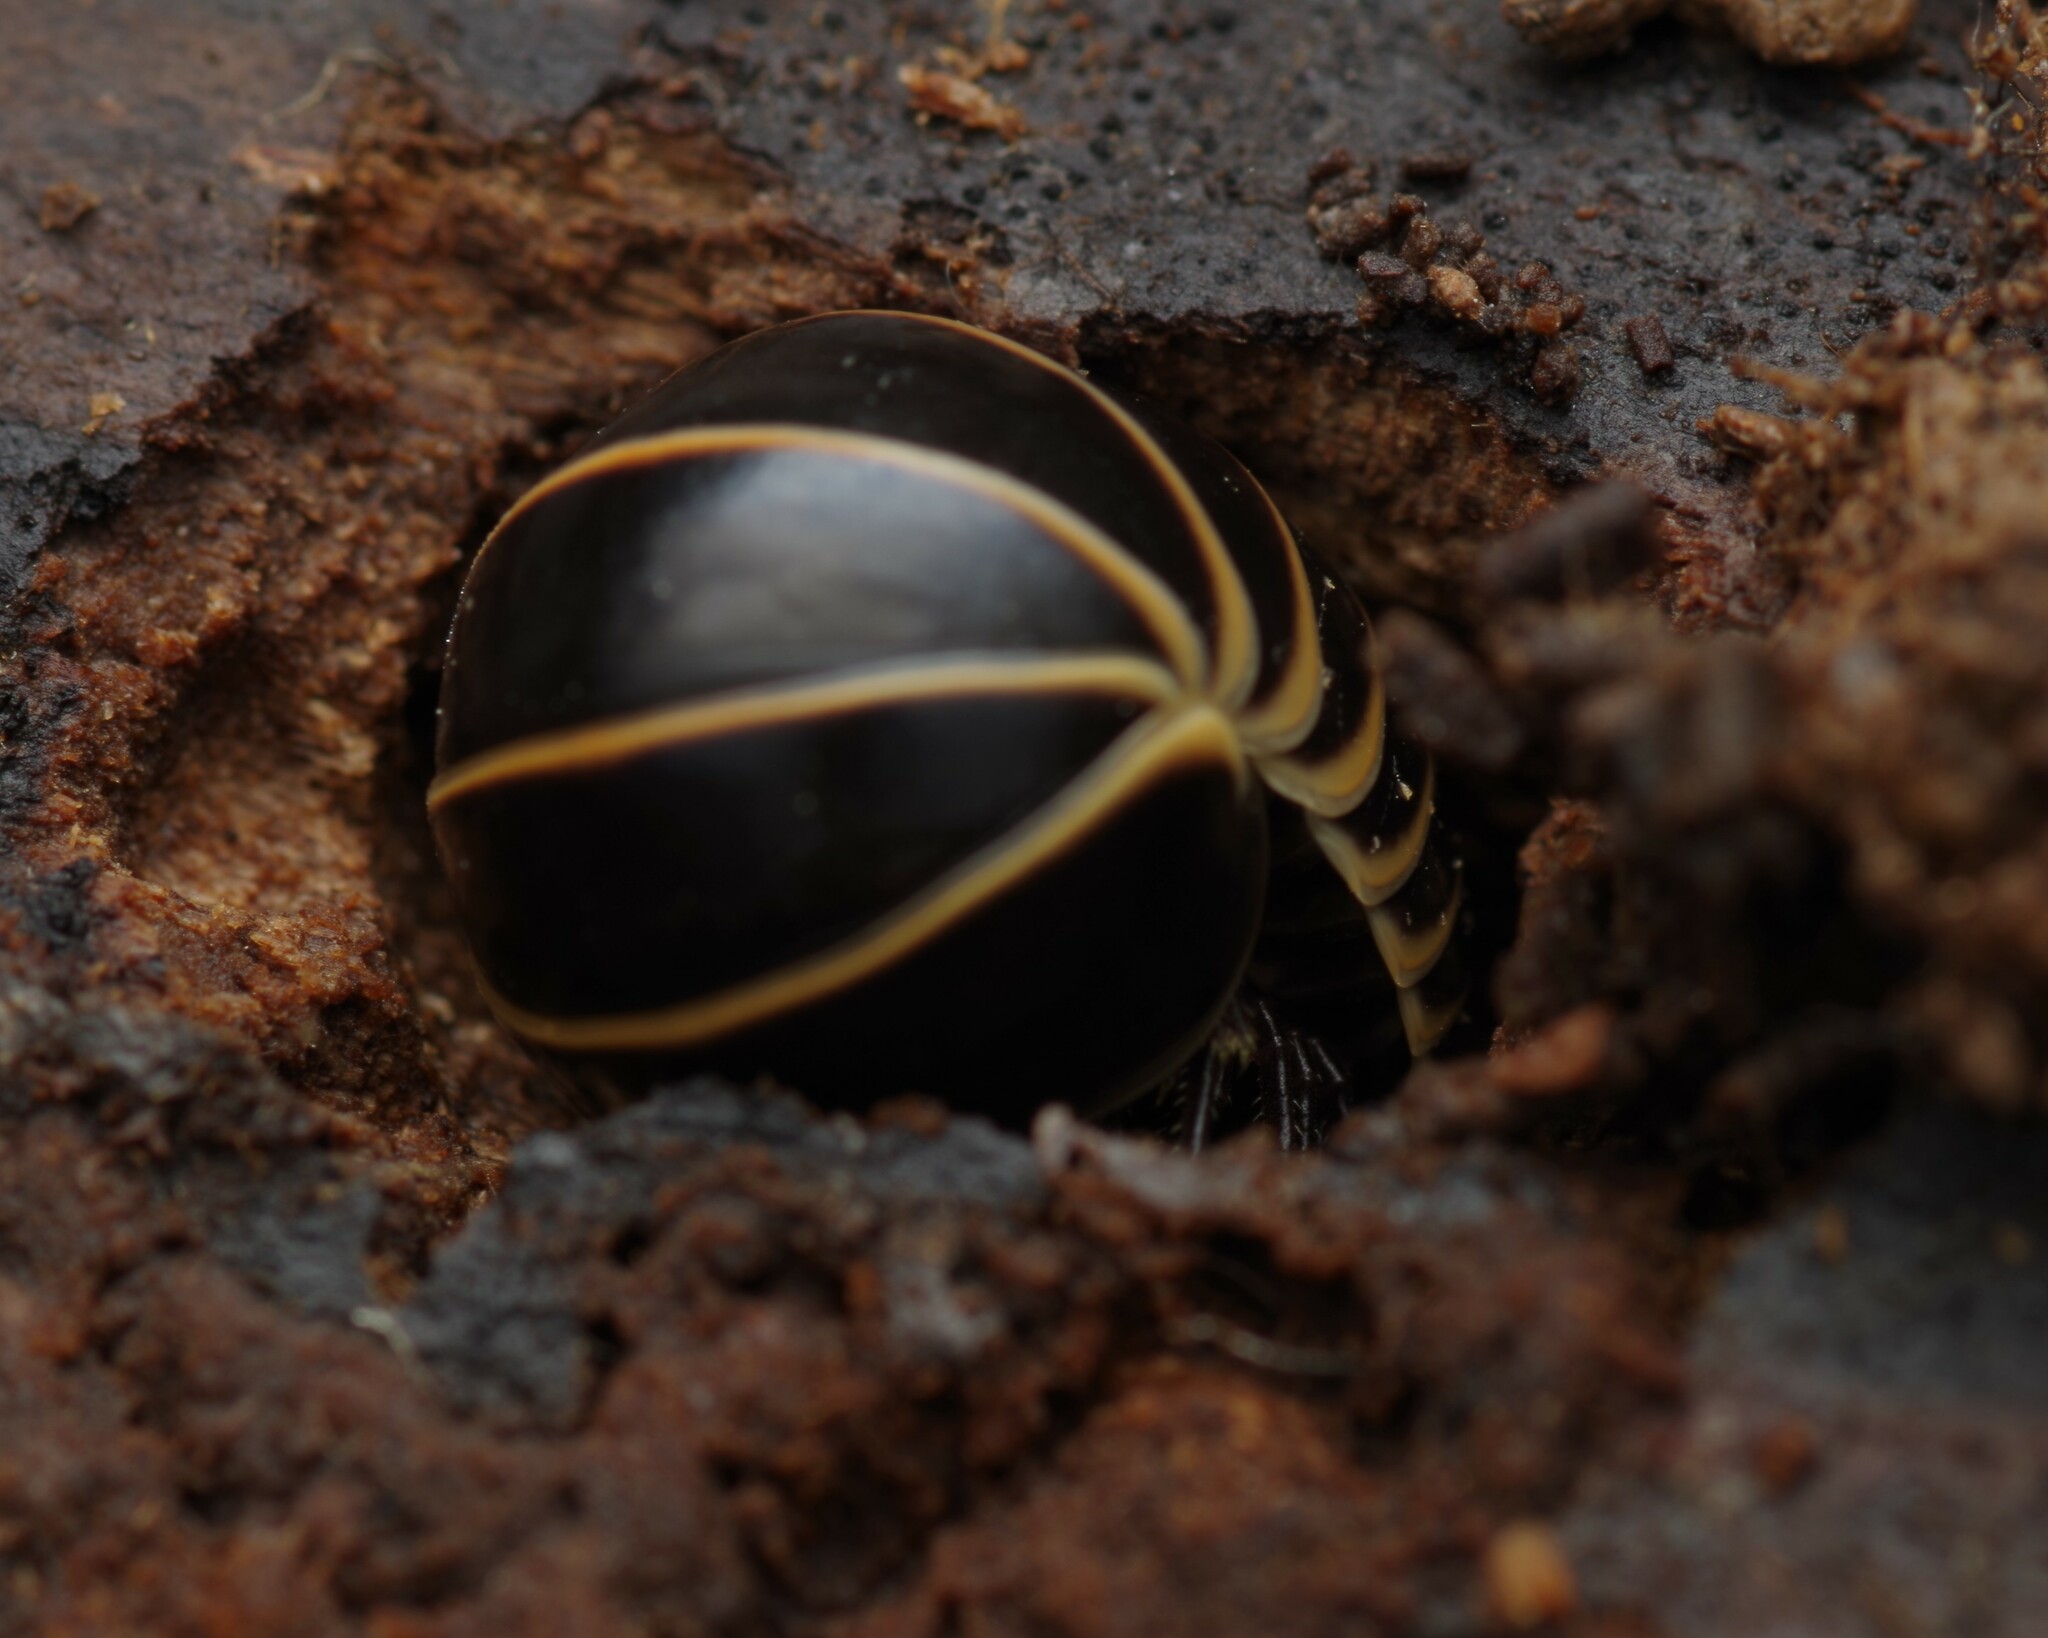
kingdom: Animalia
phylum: Arthropoda
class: Diplopoda
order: Glomerida
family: Glomeridae
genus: Glomeris
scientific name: Glomeris marginata
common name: Bordered pill millipede
